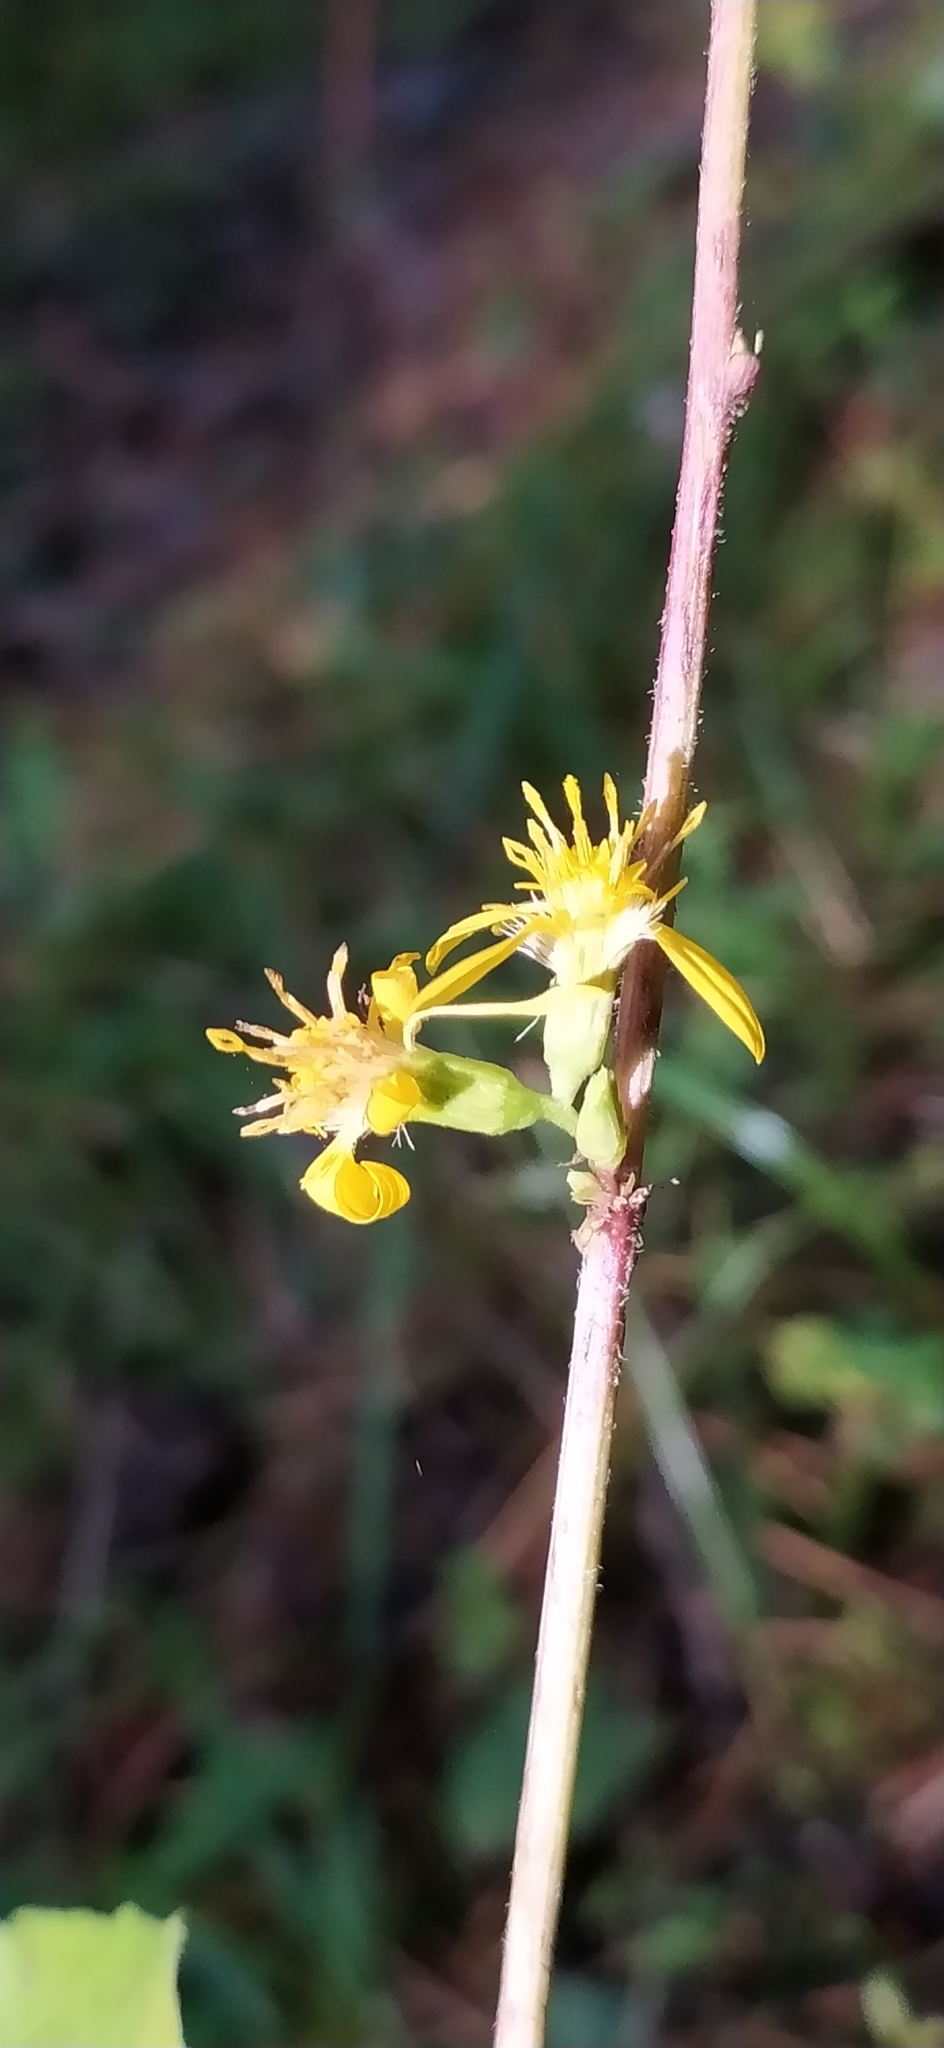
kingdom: Plantae
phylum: Tracheophyta
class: Magnoliopsida
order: Asterales
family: Asteraceae
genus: Solidago
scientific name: Solidago virgaurea
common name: Goldenrod
